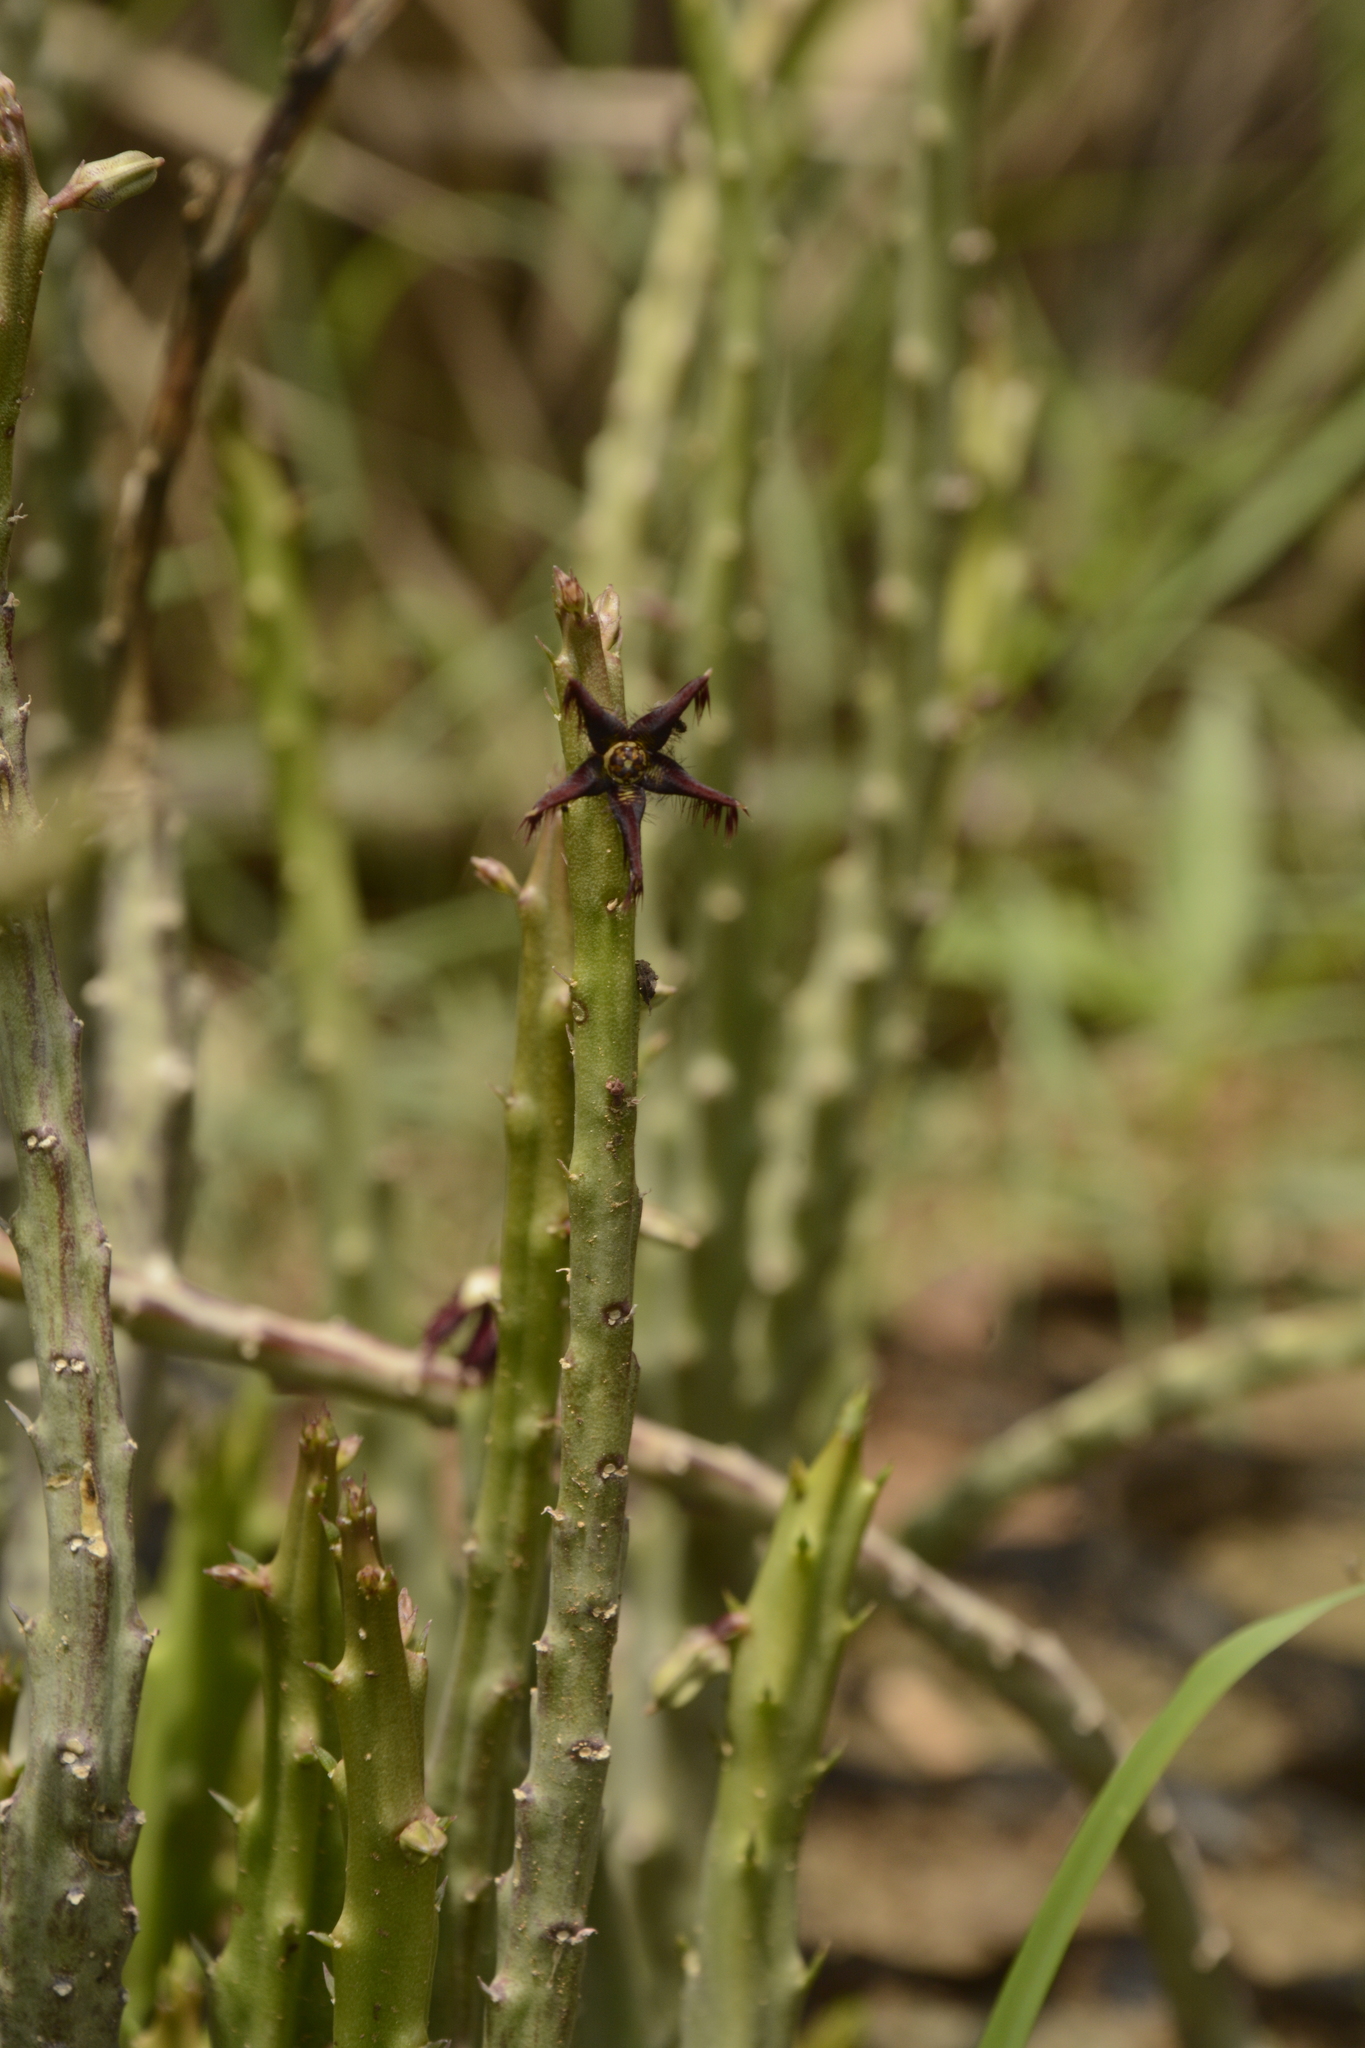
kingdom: Plantae
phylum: Tracheophyta
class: Magnoliopsida
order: Gentianales
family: Apocynaceae
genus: Ceropegia
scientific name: Ceropegia adscendens
